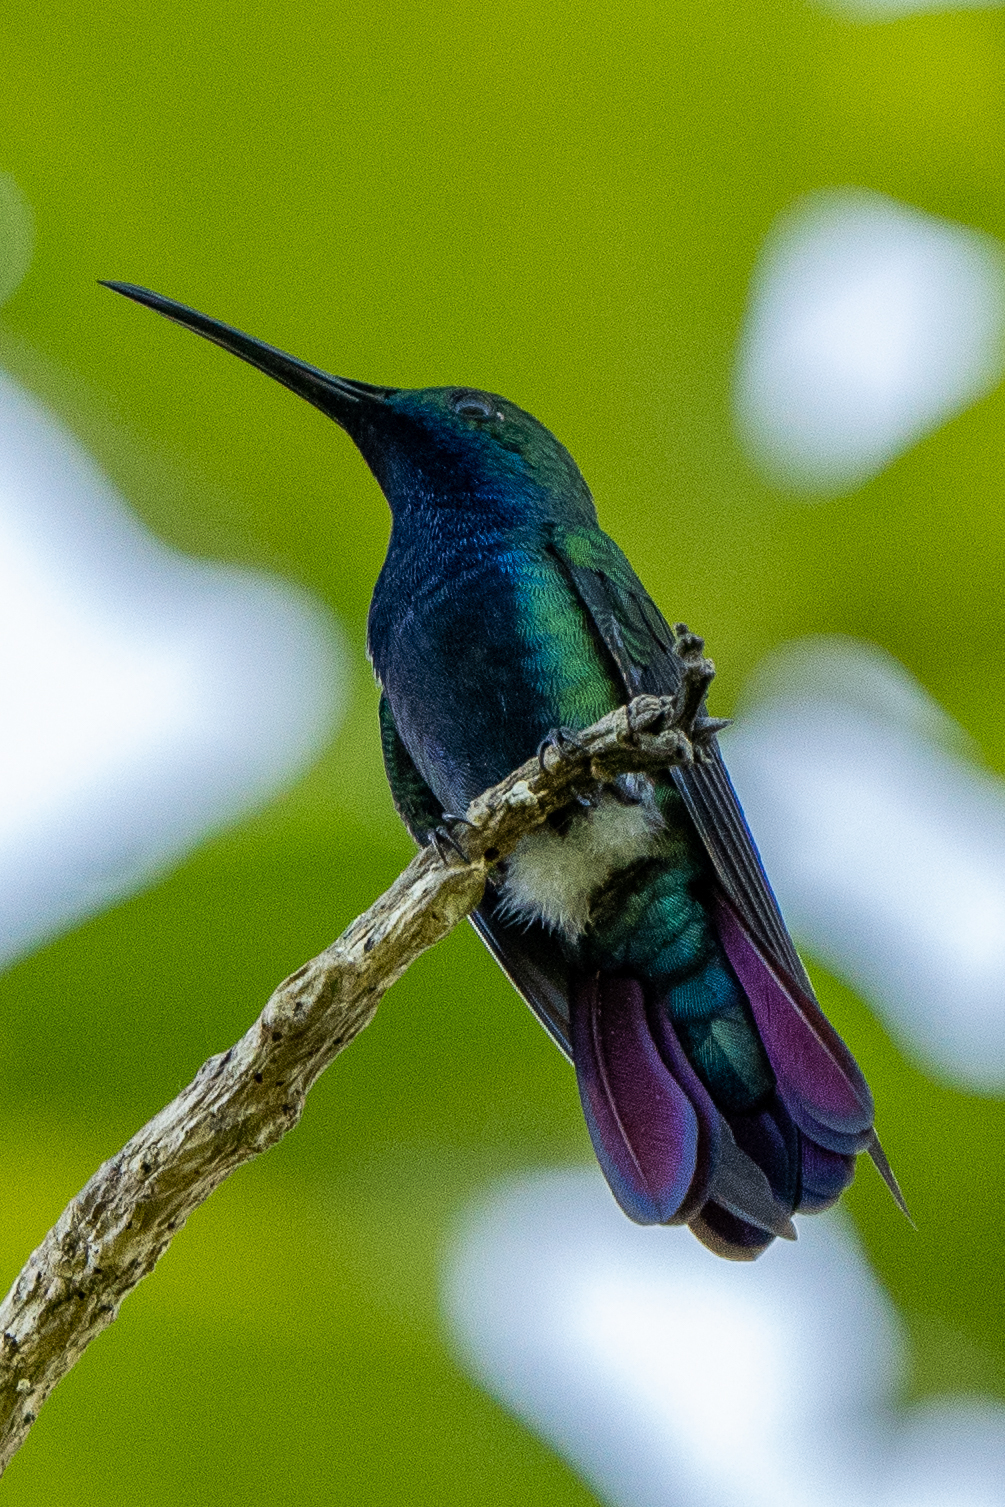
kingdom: Animalia
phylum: Chordata
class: Aves
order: Apodiformes
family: Trochilidae
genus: Anthracothorax
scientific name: Anthracothorax nigricollis
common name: Black-throated mango
